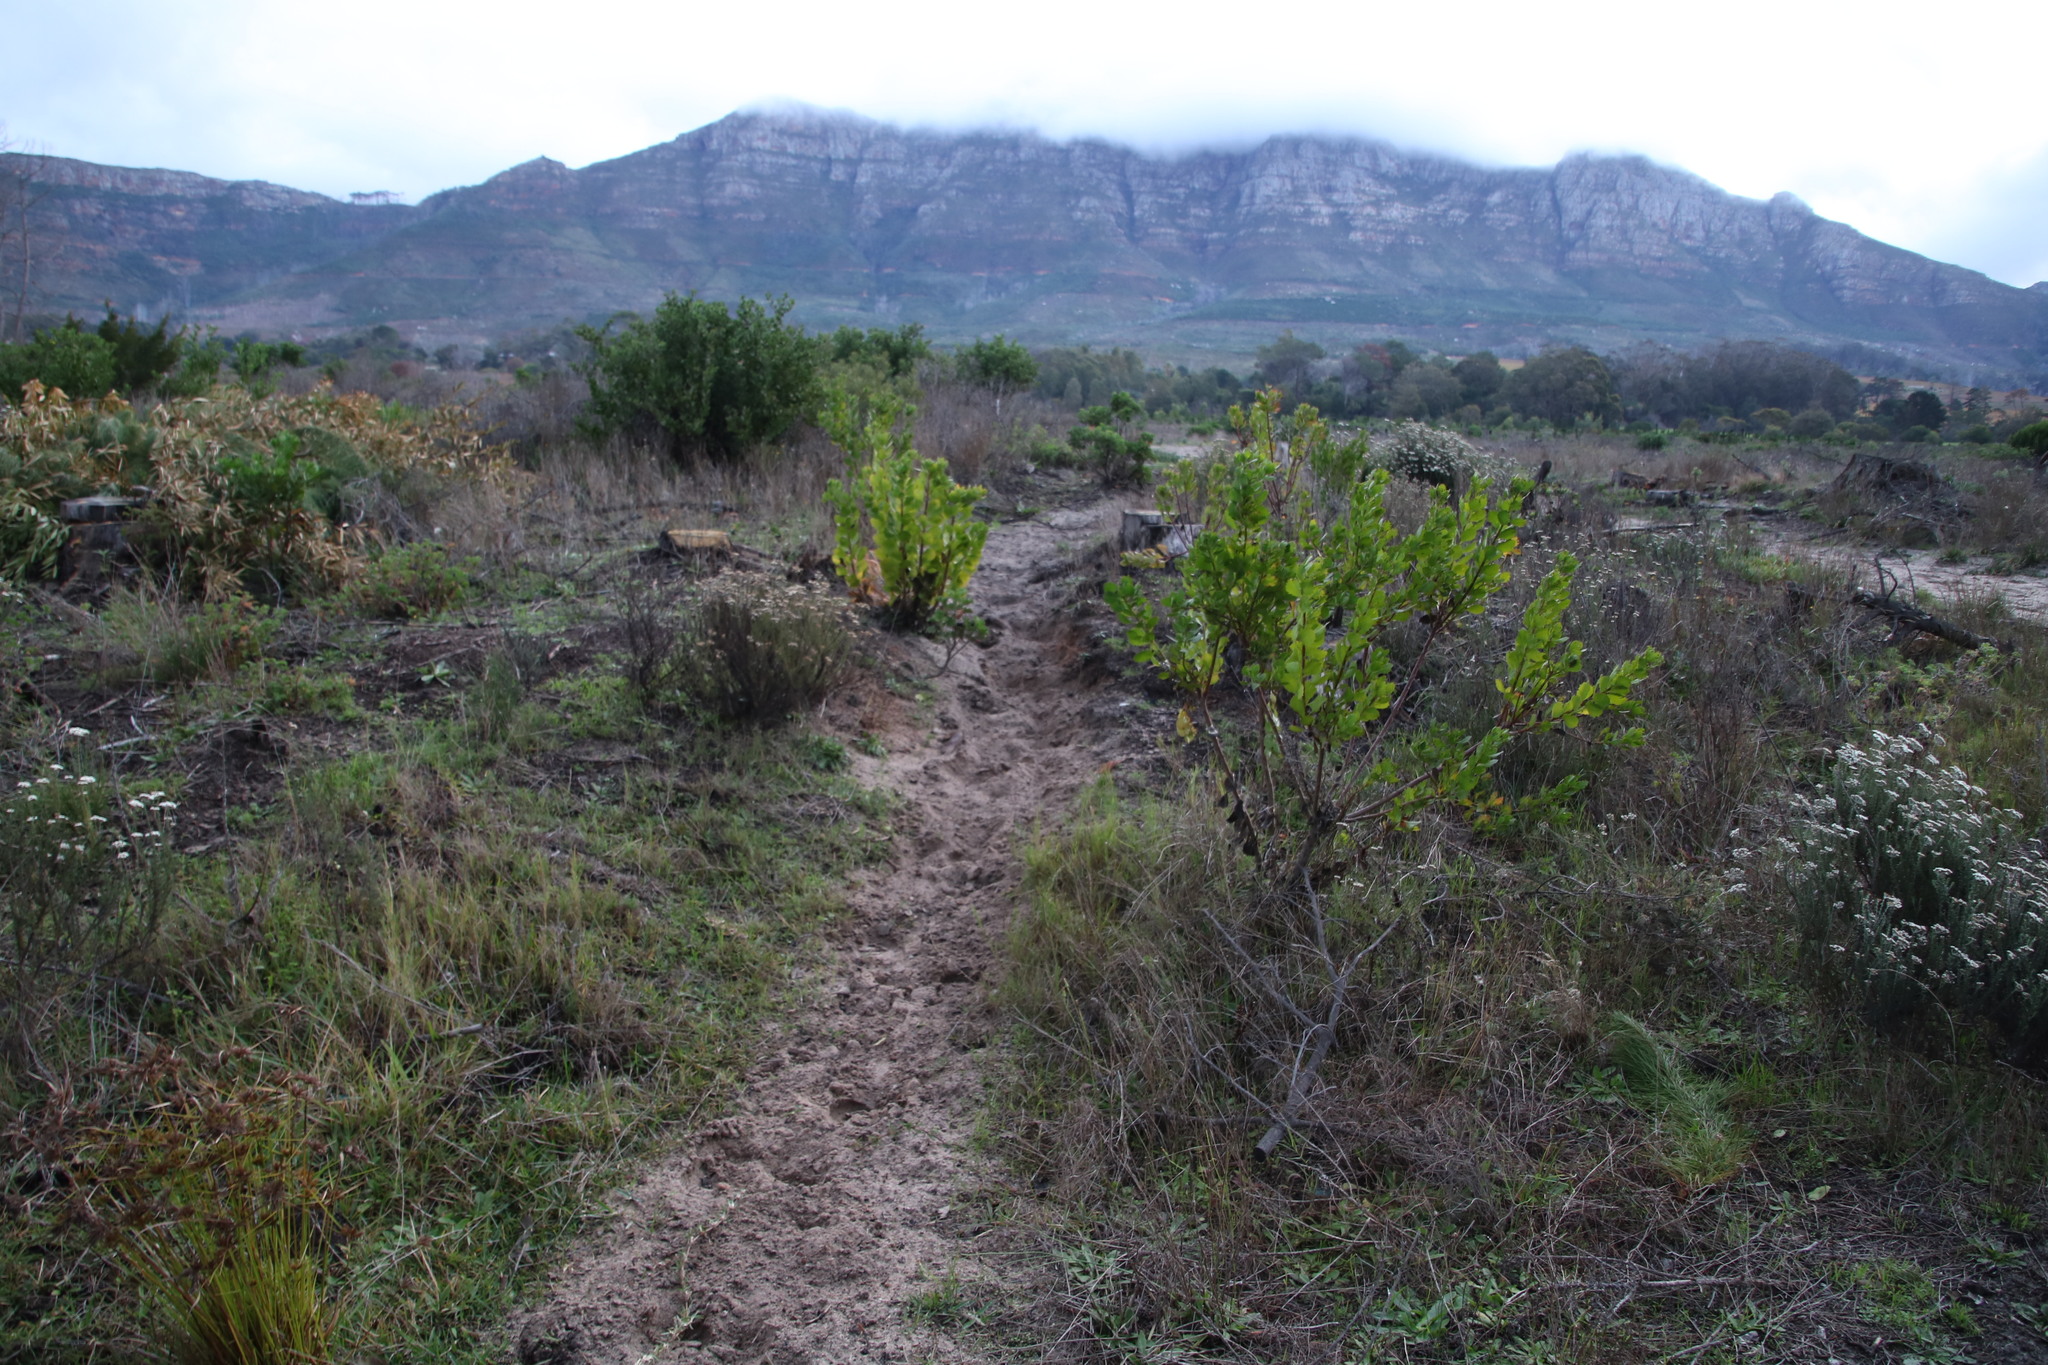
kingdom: Plantae
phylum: Tracheophyta
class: Magnoliopsida
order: Asterales
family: Asteraceae
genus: Osteospermum
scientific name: Osteospermum moniliferum
